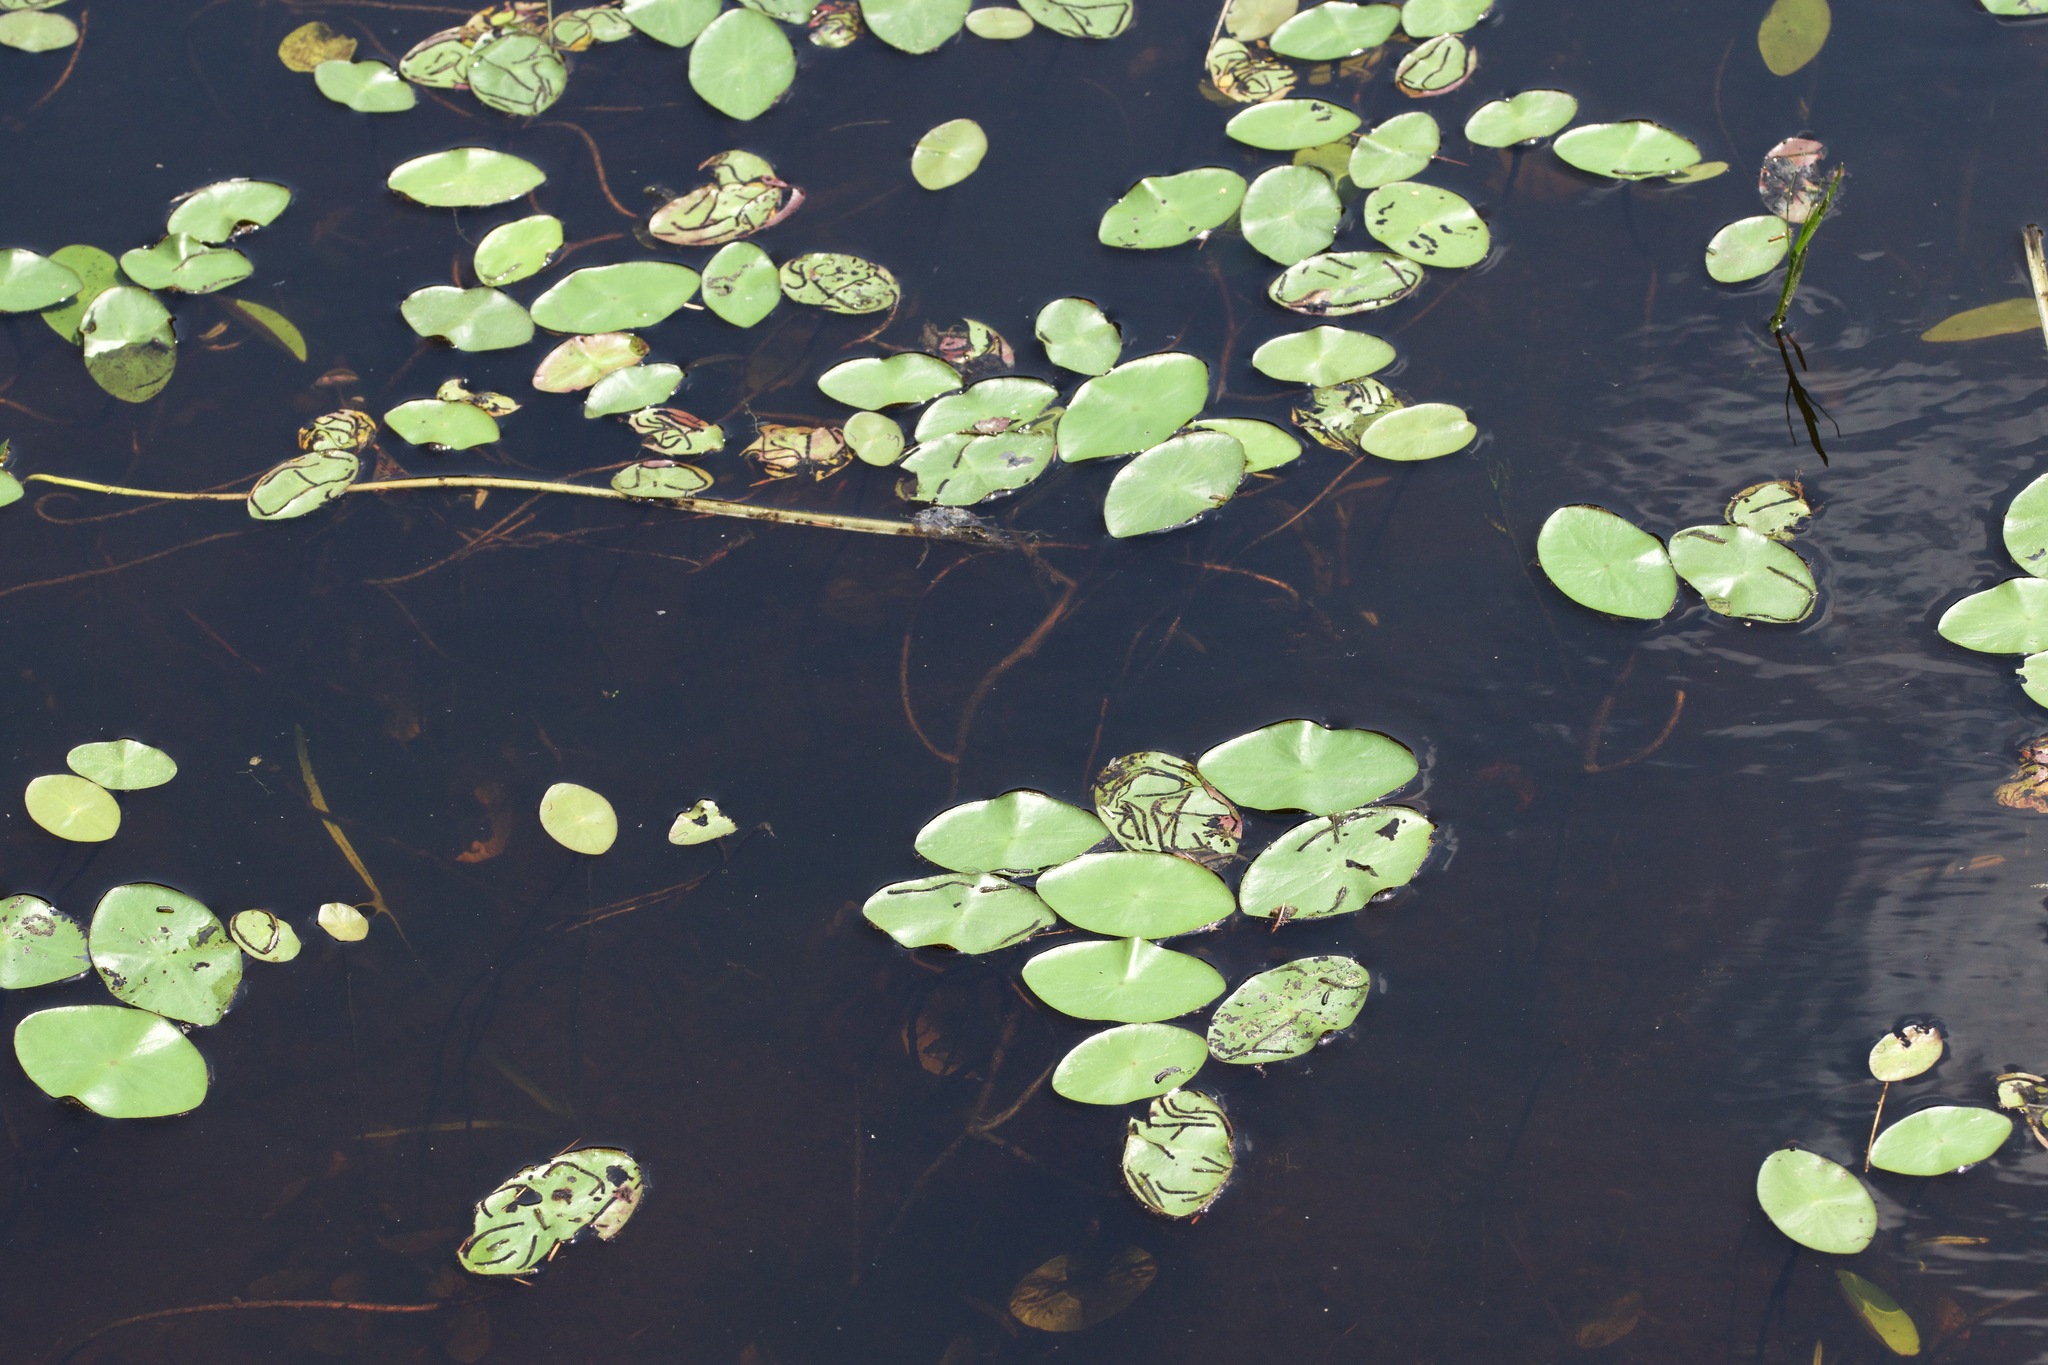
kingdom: Plantae
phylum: Tracheophyta
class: Magnoliopsida
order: Nymphaeales
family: Cabombaceae
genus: Brasenia
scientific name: Brasenia schreberi
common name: Water-shield
